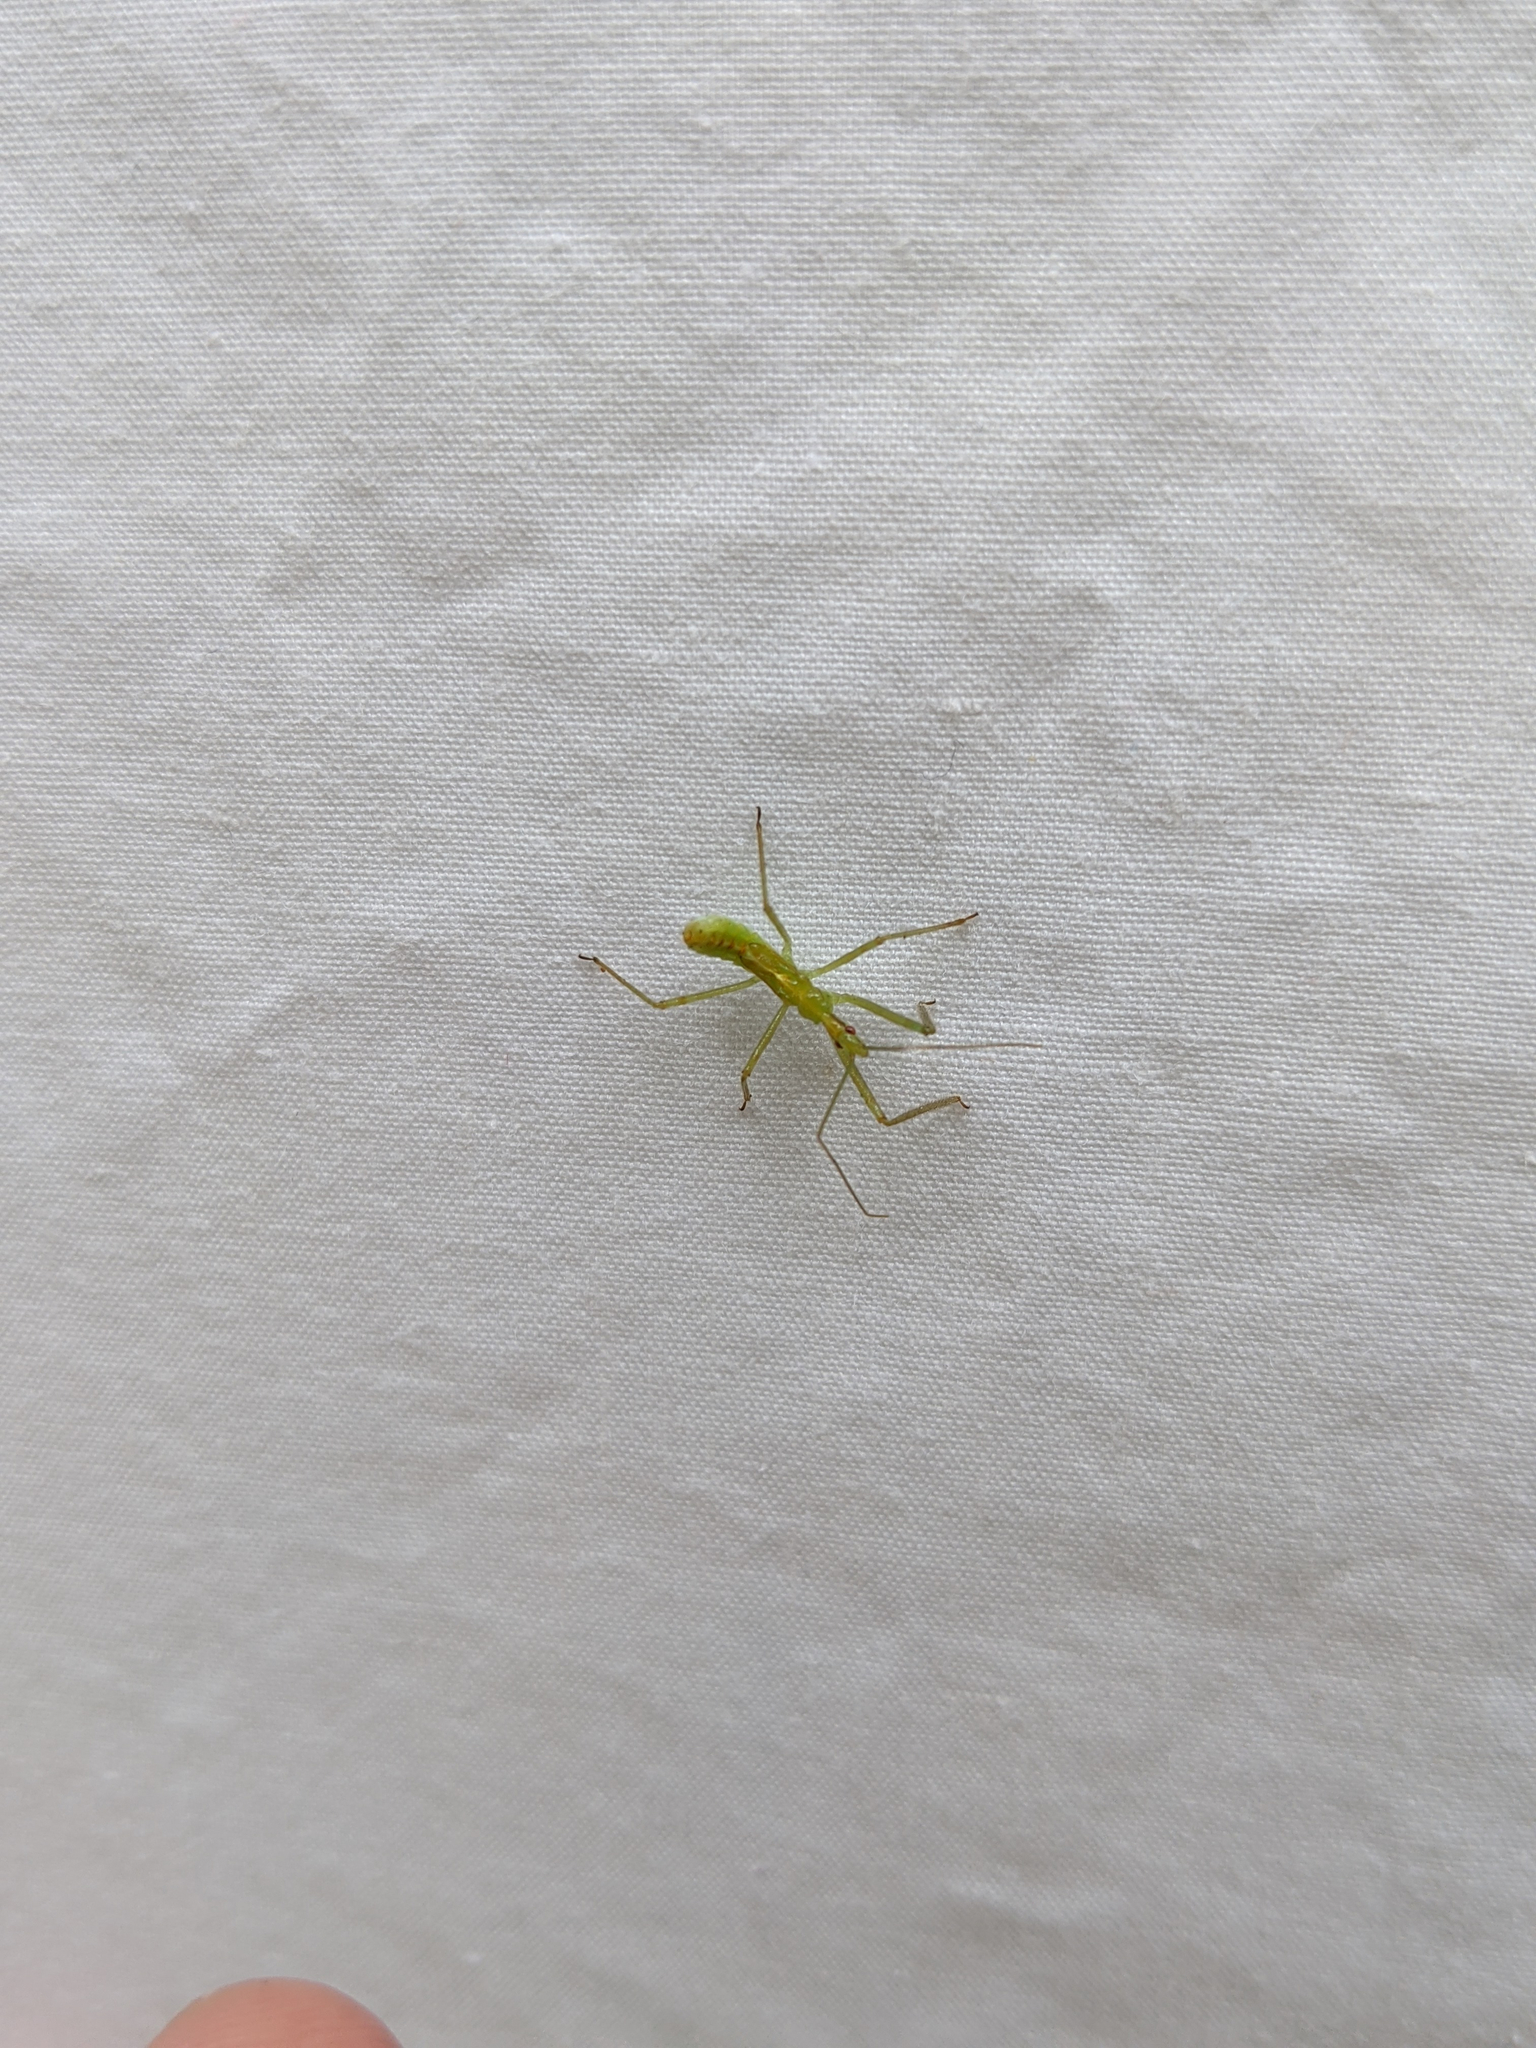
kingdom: Animalia
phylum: Arthropoda
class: Insecta
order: Hemiptera
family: Reduviidae
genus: Zelus
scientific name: Zelus luridus
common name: Pale green assassin bug
